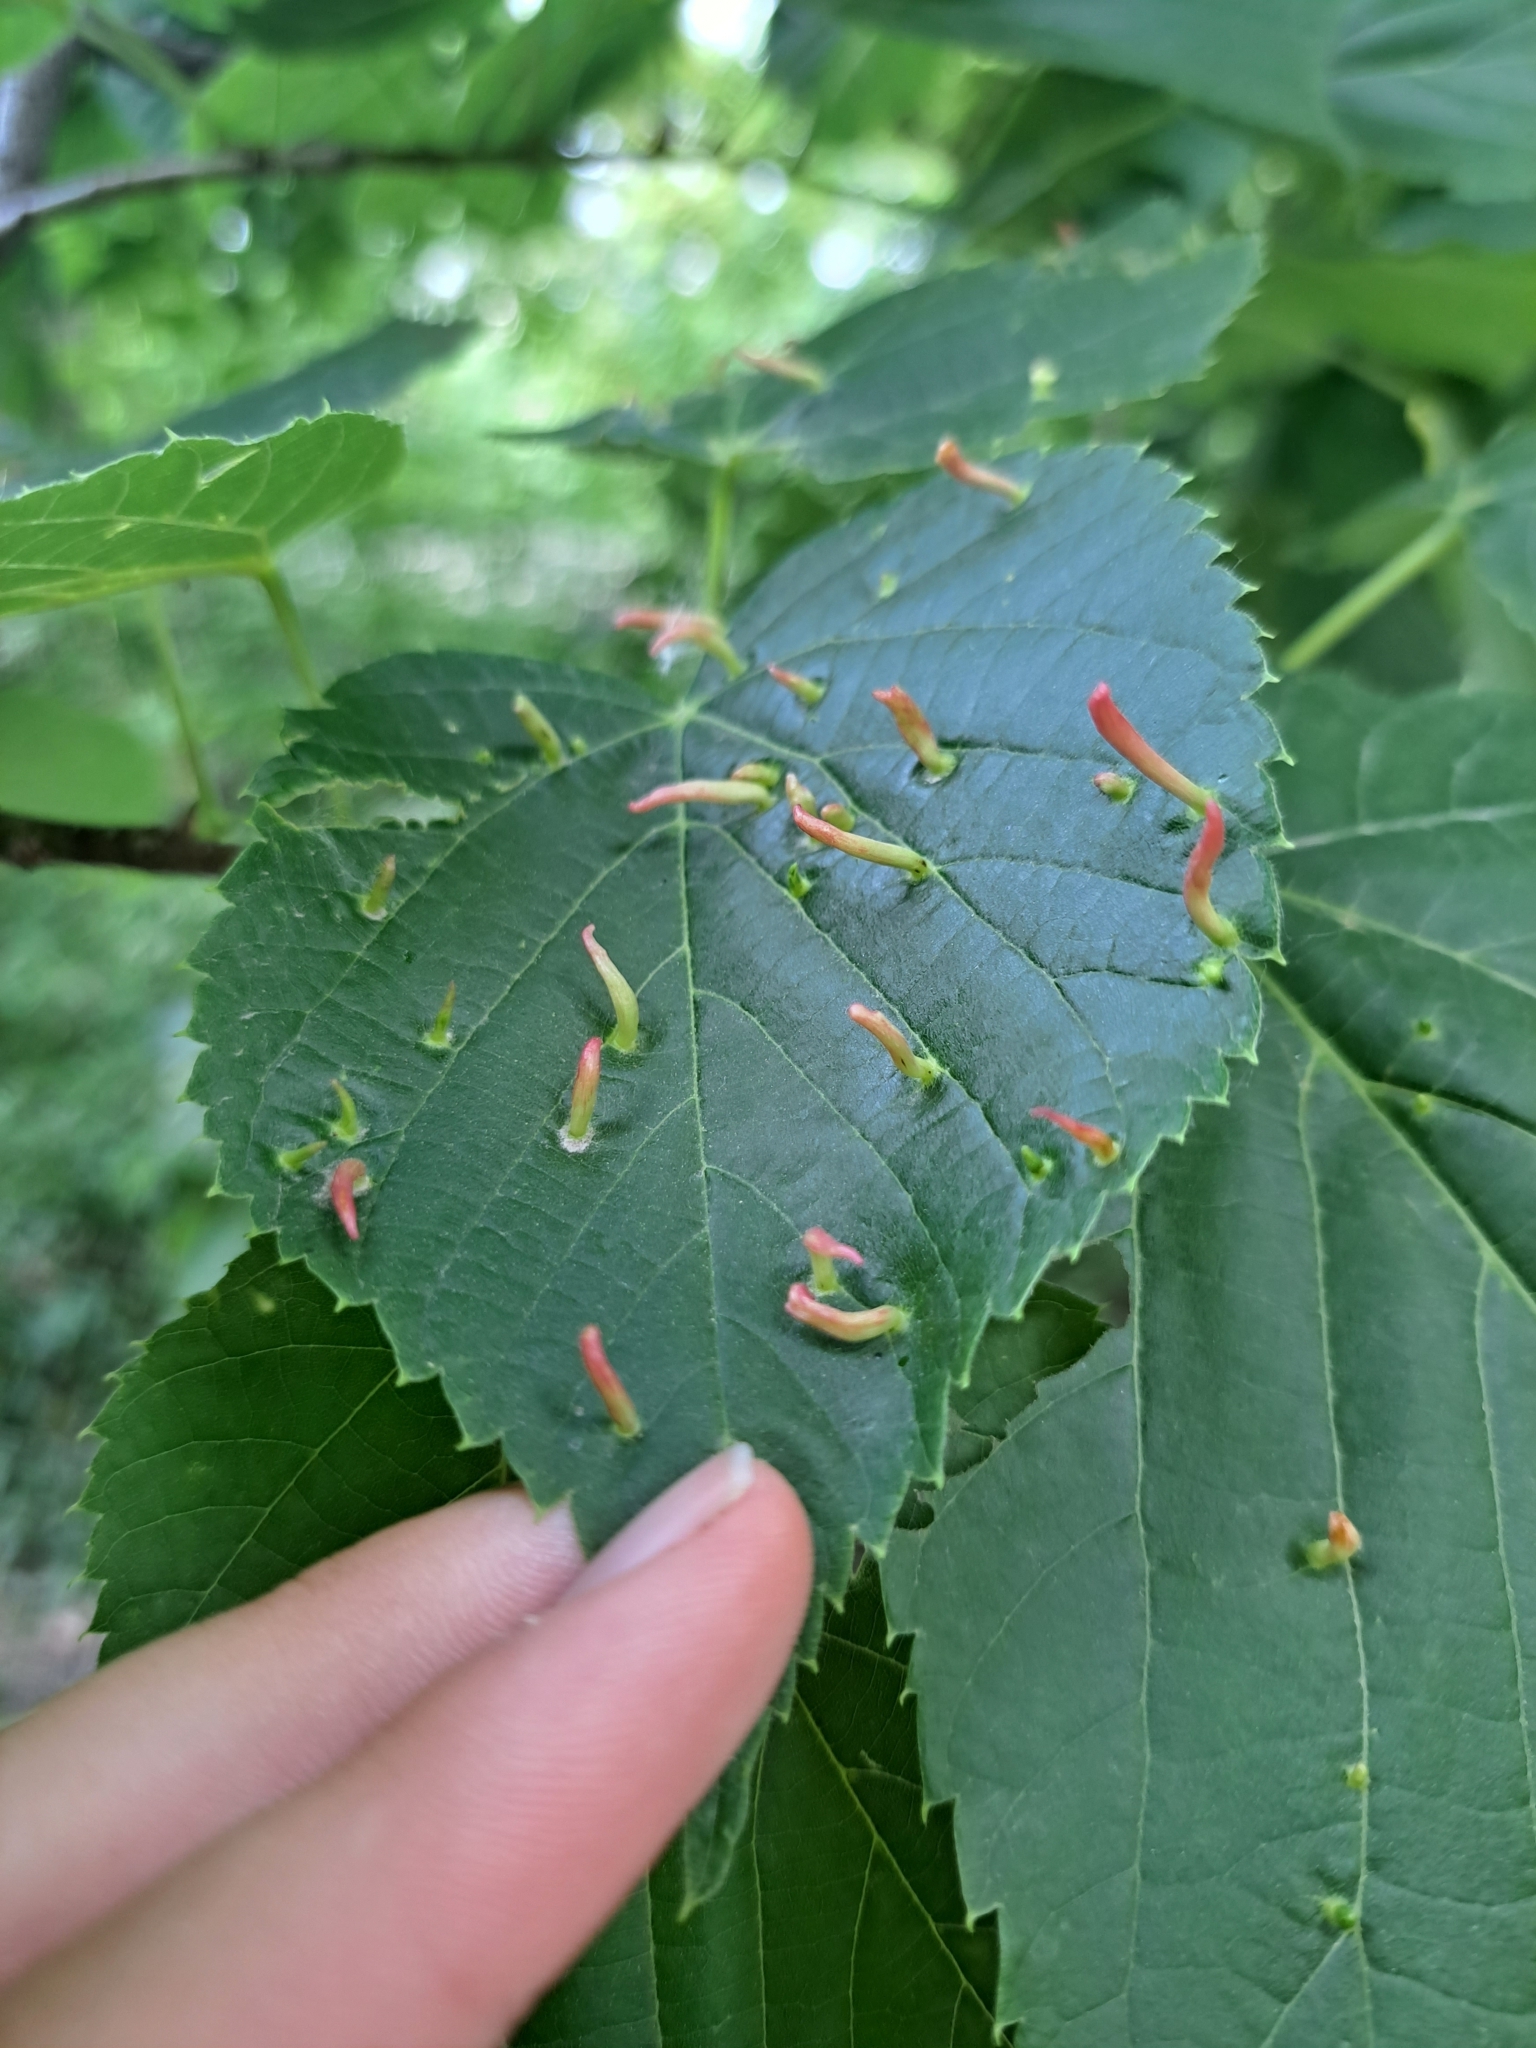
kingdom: Animalia
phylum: Arthropoda
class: Arachnida
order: Trombidiformes
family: Eriophyidae
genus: Eriophyes
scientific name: Eriophyes tiliae
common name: Red nail gall mite
